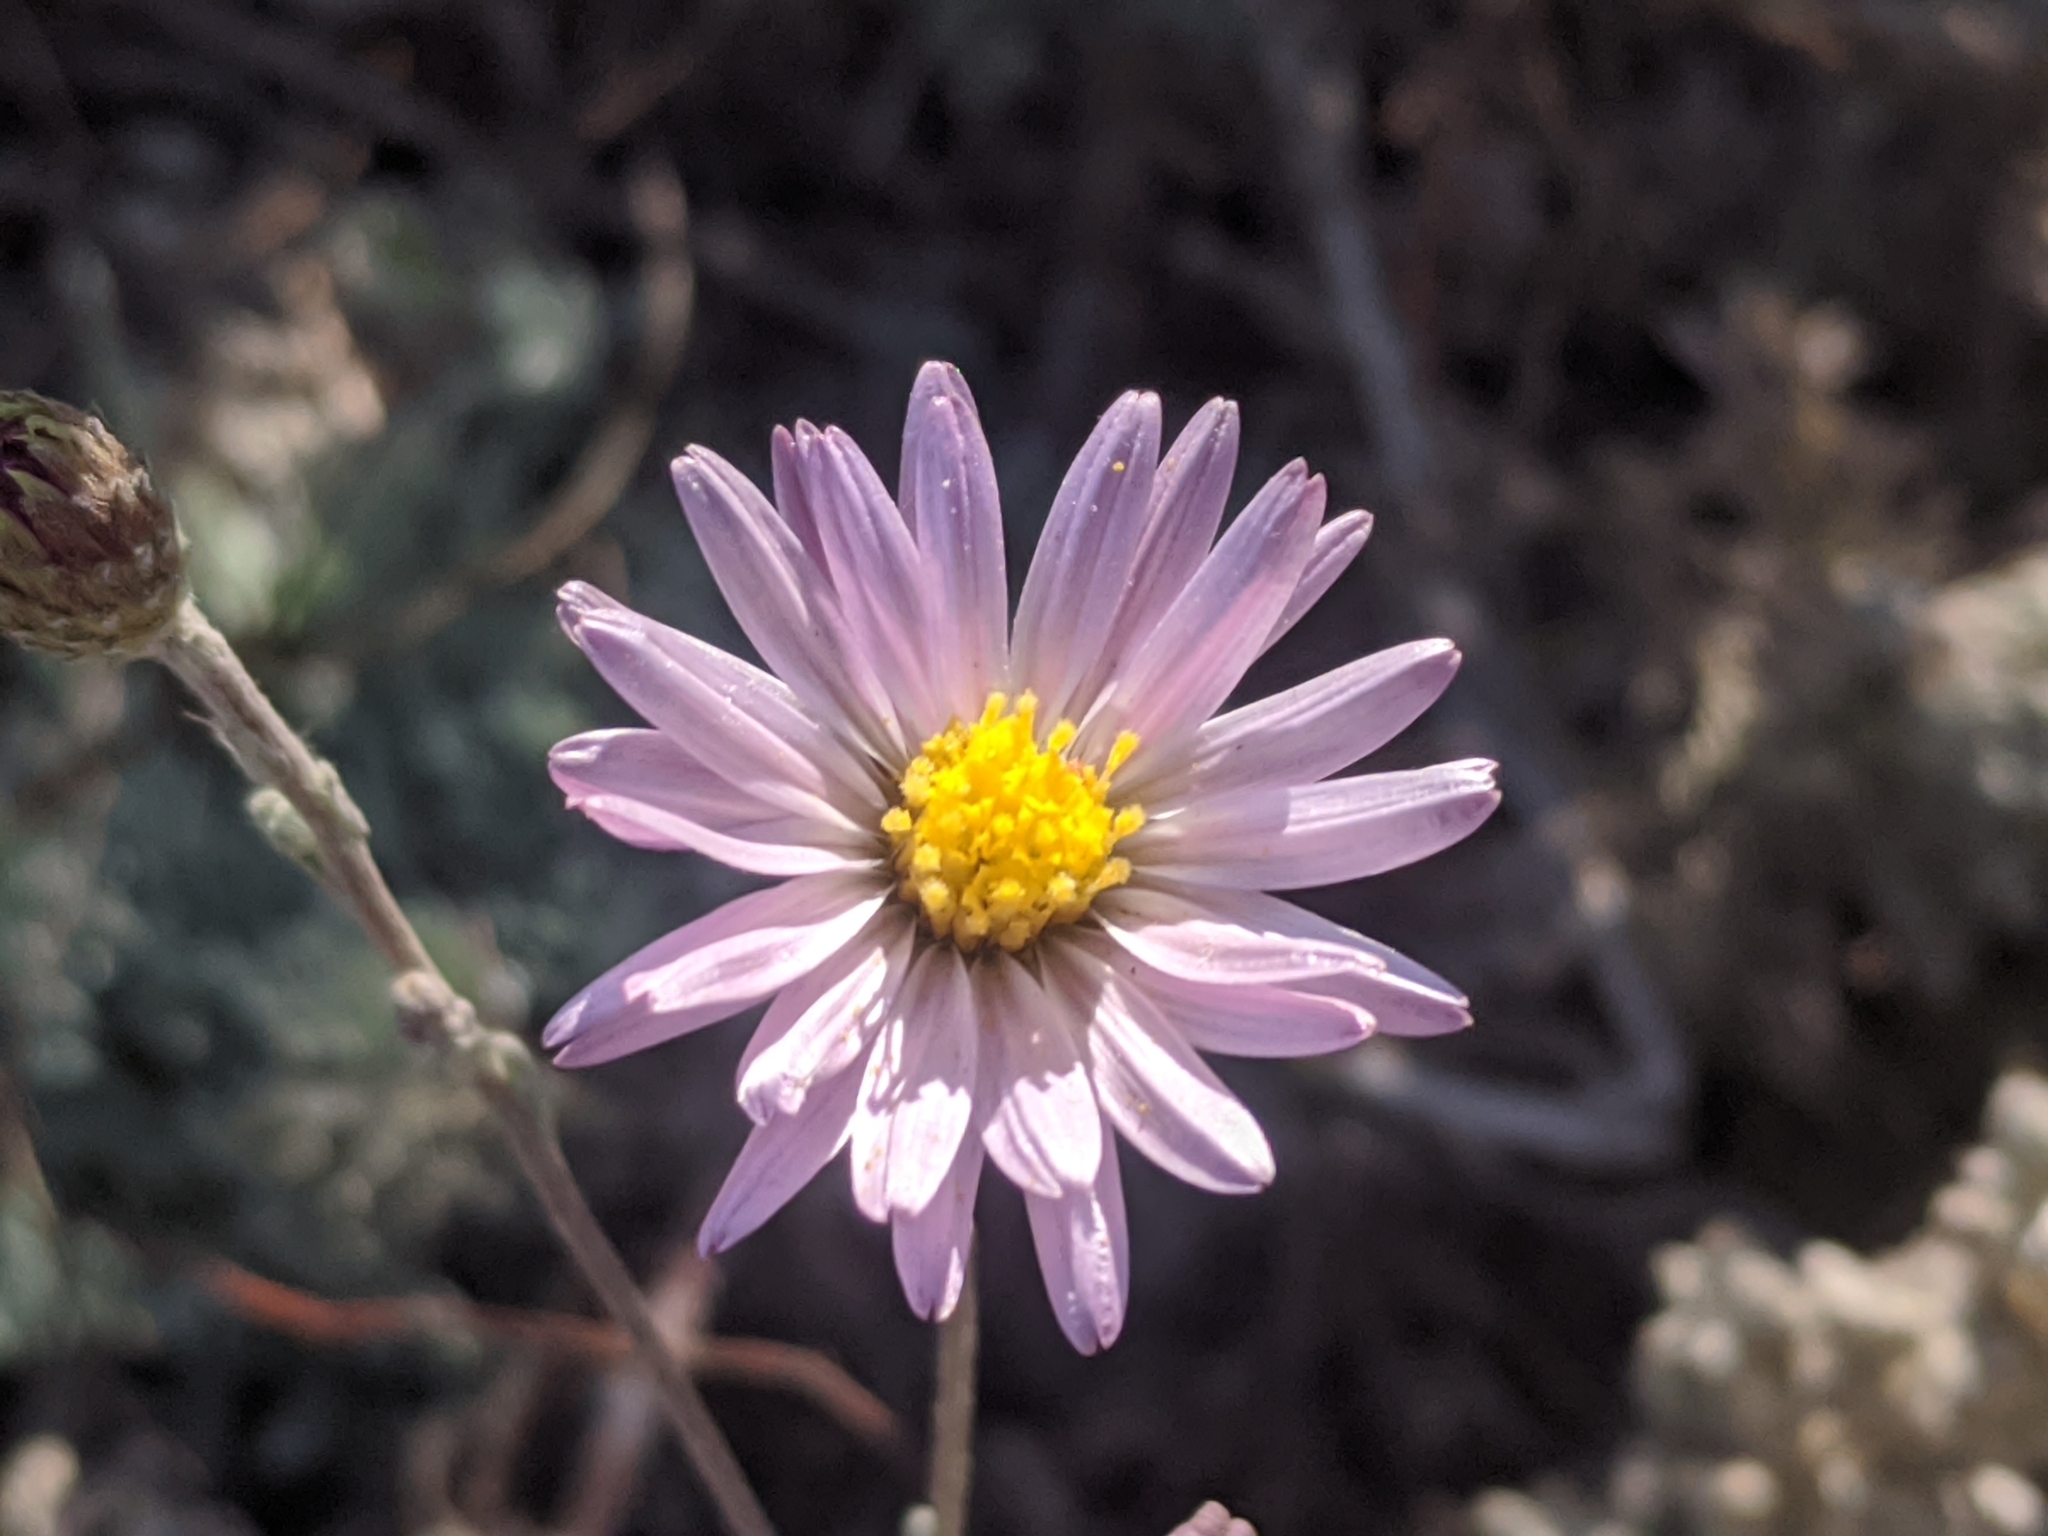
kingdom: Plantae
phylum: Tracheophyta
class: Magnoliopsida
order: Asterales
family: Asteraceae
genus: Corethrogyne
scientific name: Corethrogyne filaginifolia
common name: Sand-aster
